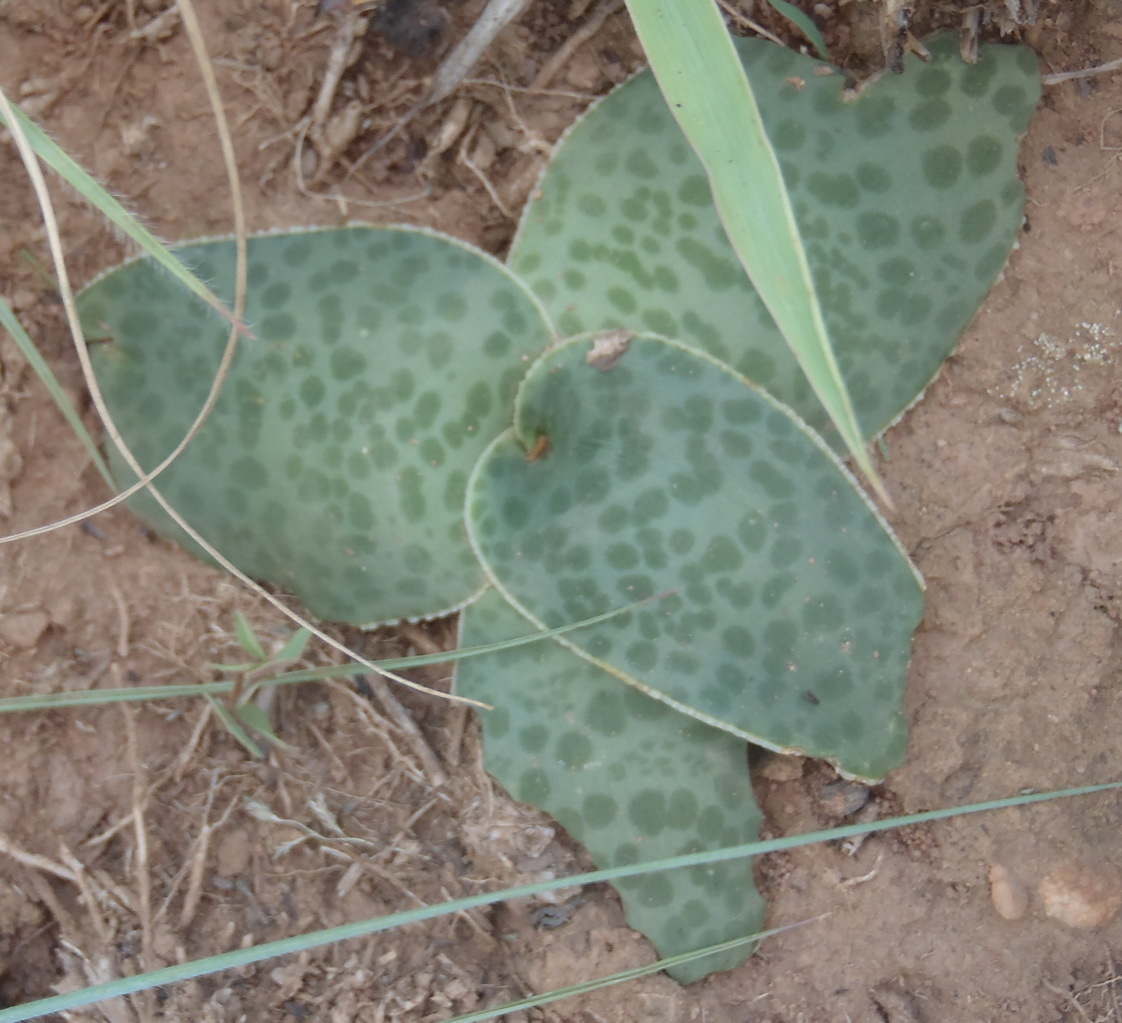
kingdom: Plantae
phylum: Tracheophyta
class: Liliopsida
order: Asparagales
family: Asparagaceae
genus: Ledebouria
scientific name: Ledebouria ovatifolia
